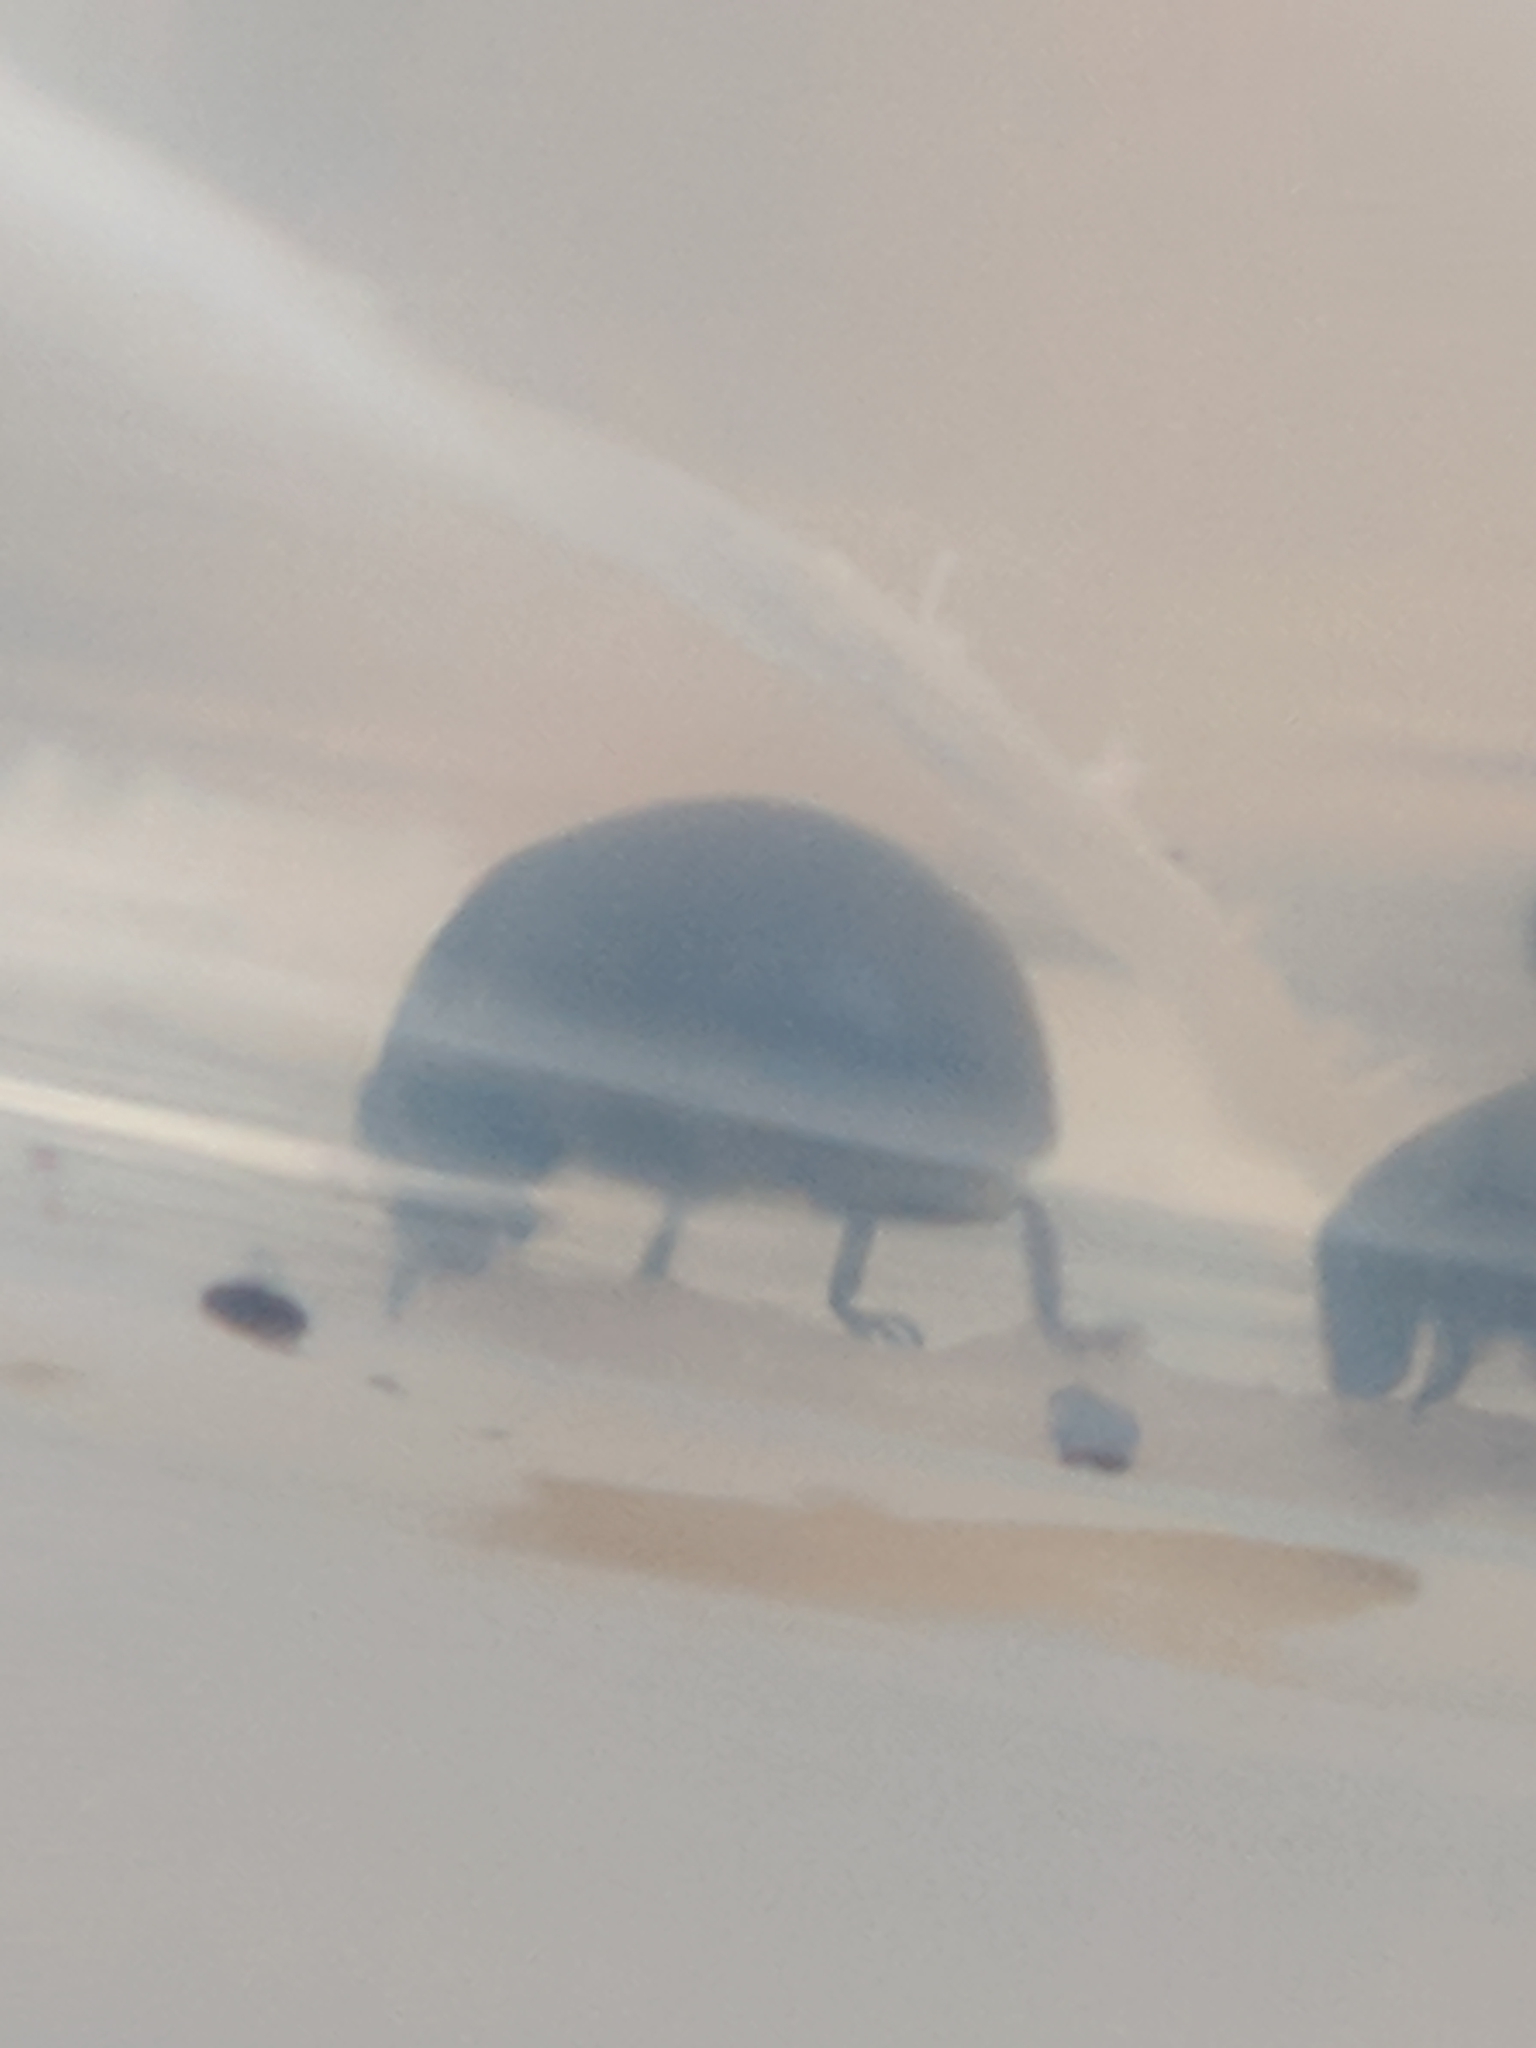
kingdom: Animalia
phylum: Arthropoda
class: Insecta
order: Coleoptera
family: Coccinellidae
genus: Sasajiscymnus
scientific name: Sasajiscymnus
